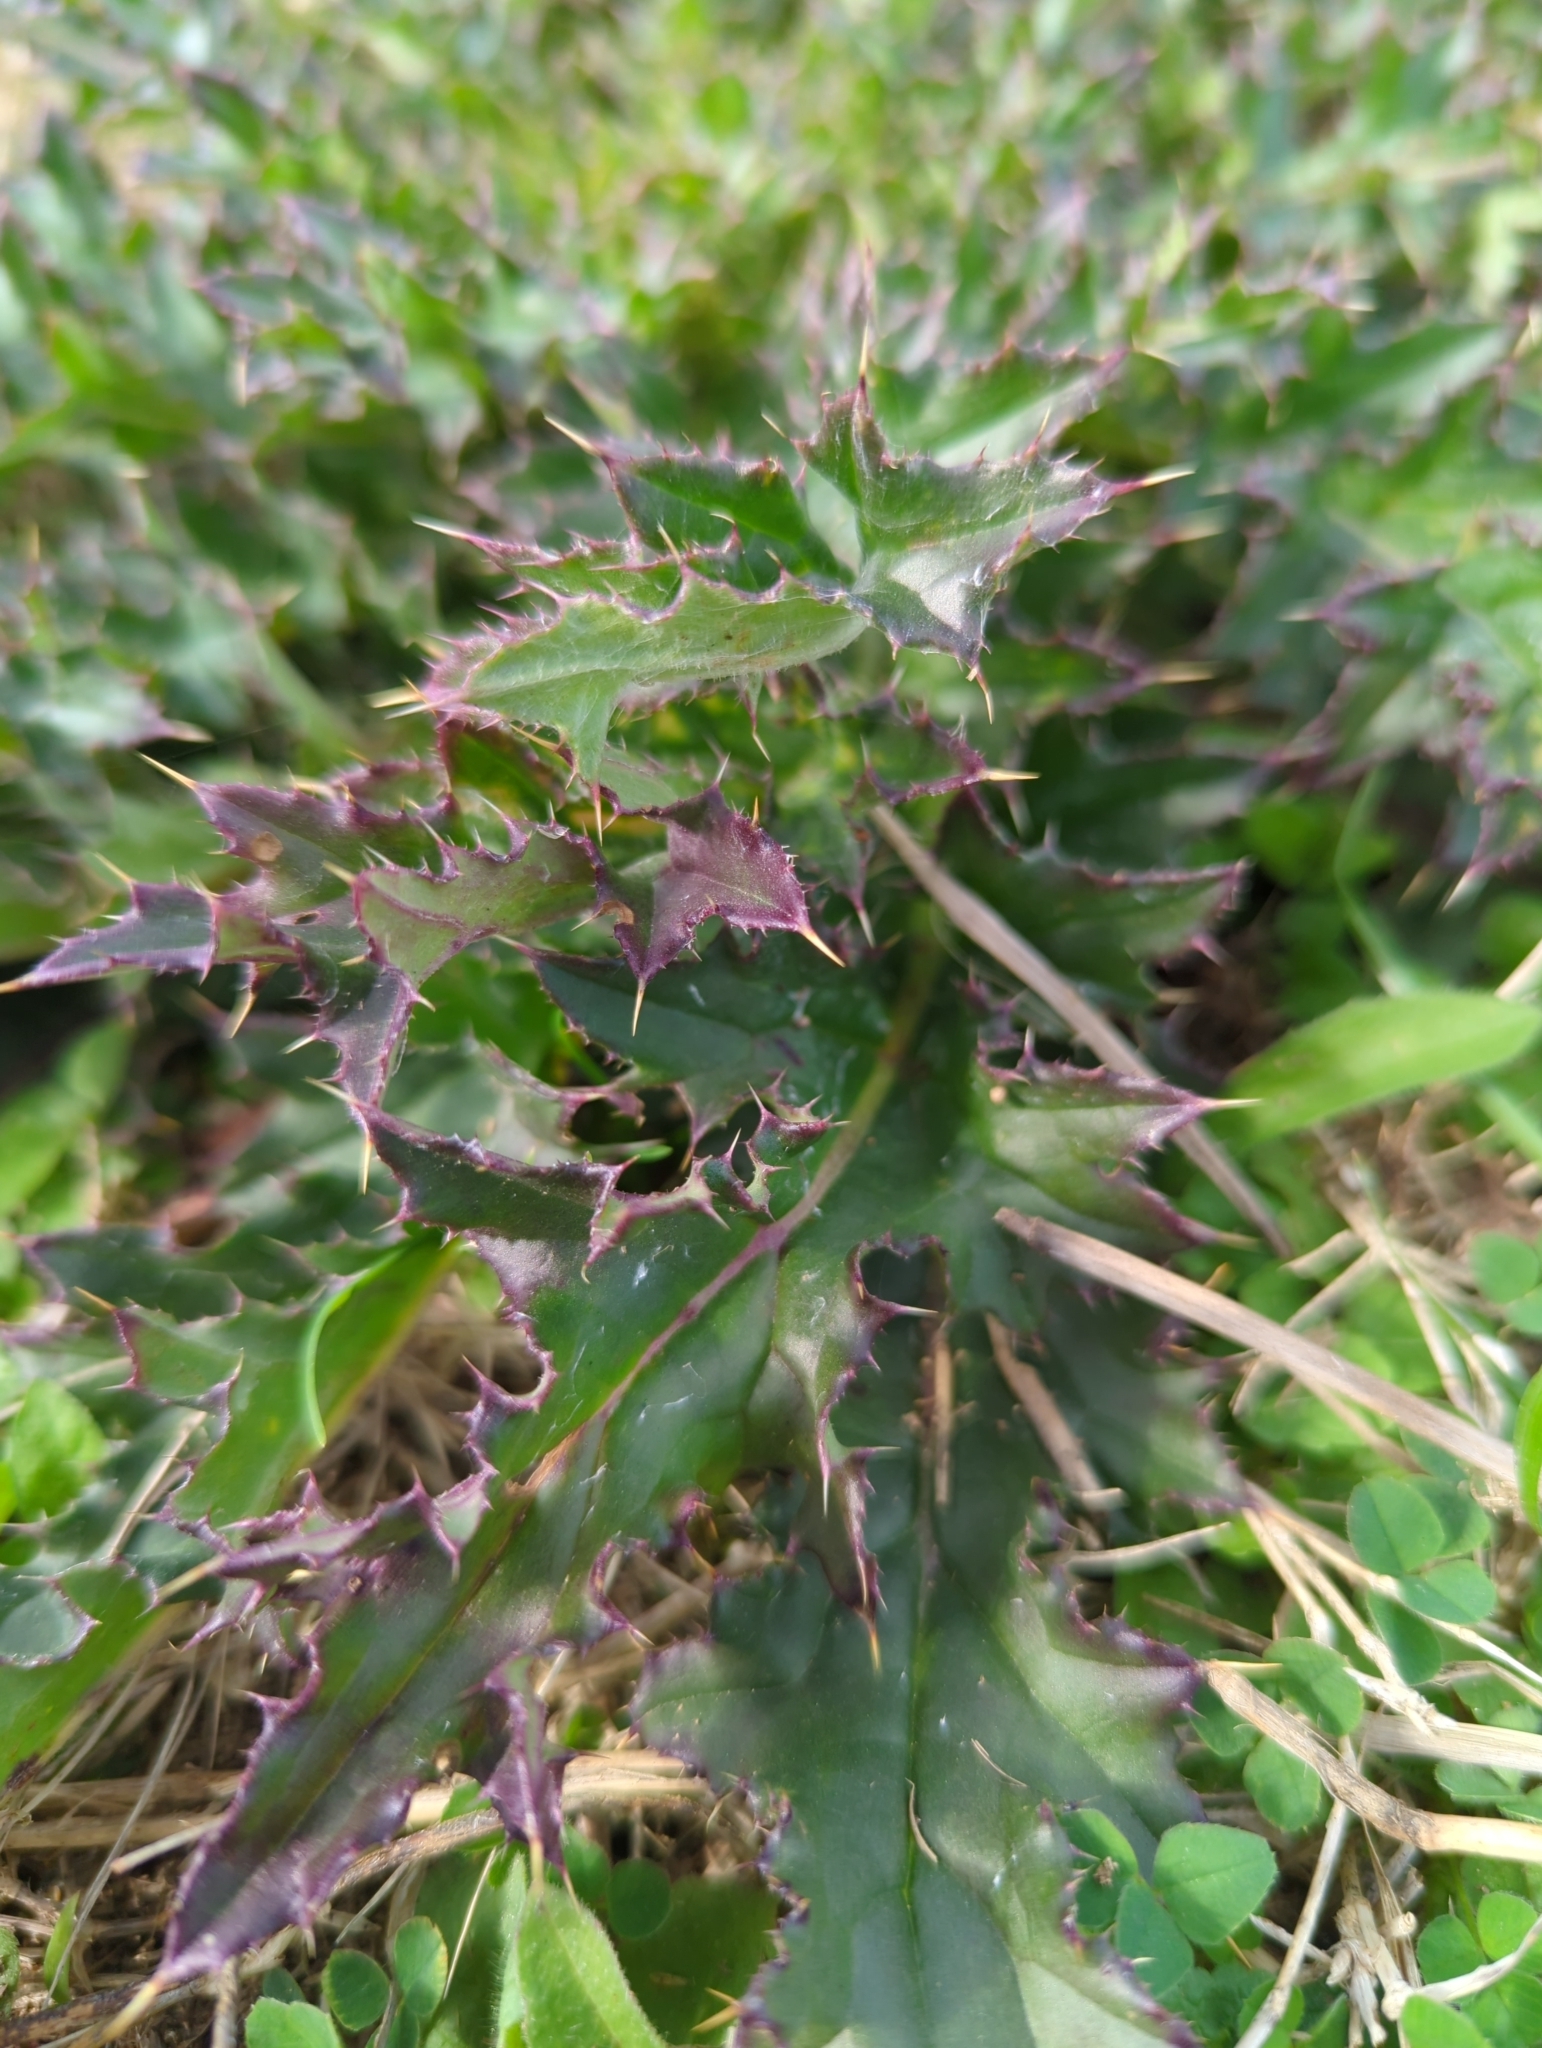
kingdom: Plantae
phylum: Tracheophyta
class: Magnoliopsida
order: Asterales
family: Asteraceae
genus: Cirsium
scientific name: Cirsium horridulum
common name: Bristly thistle
